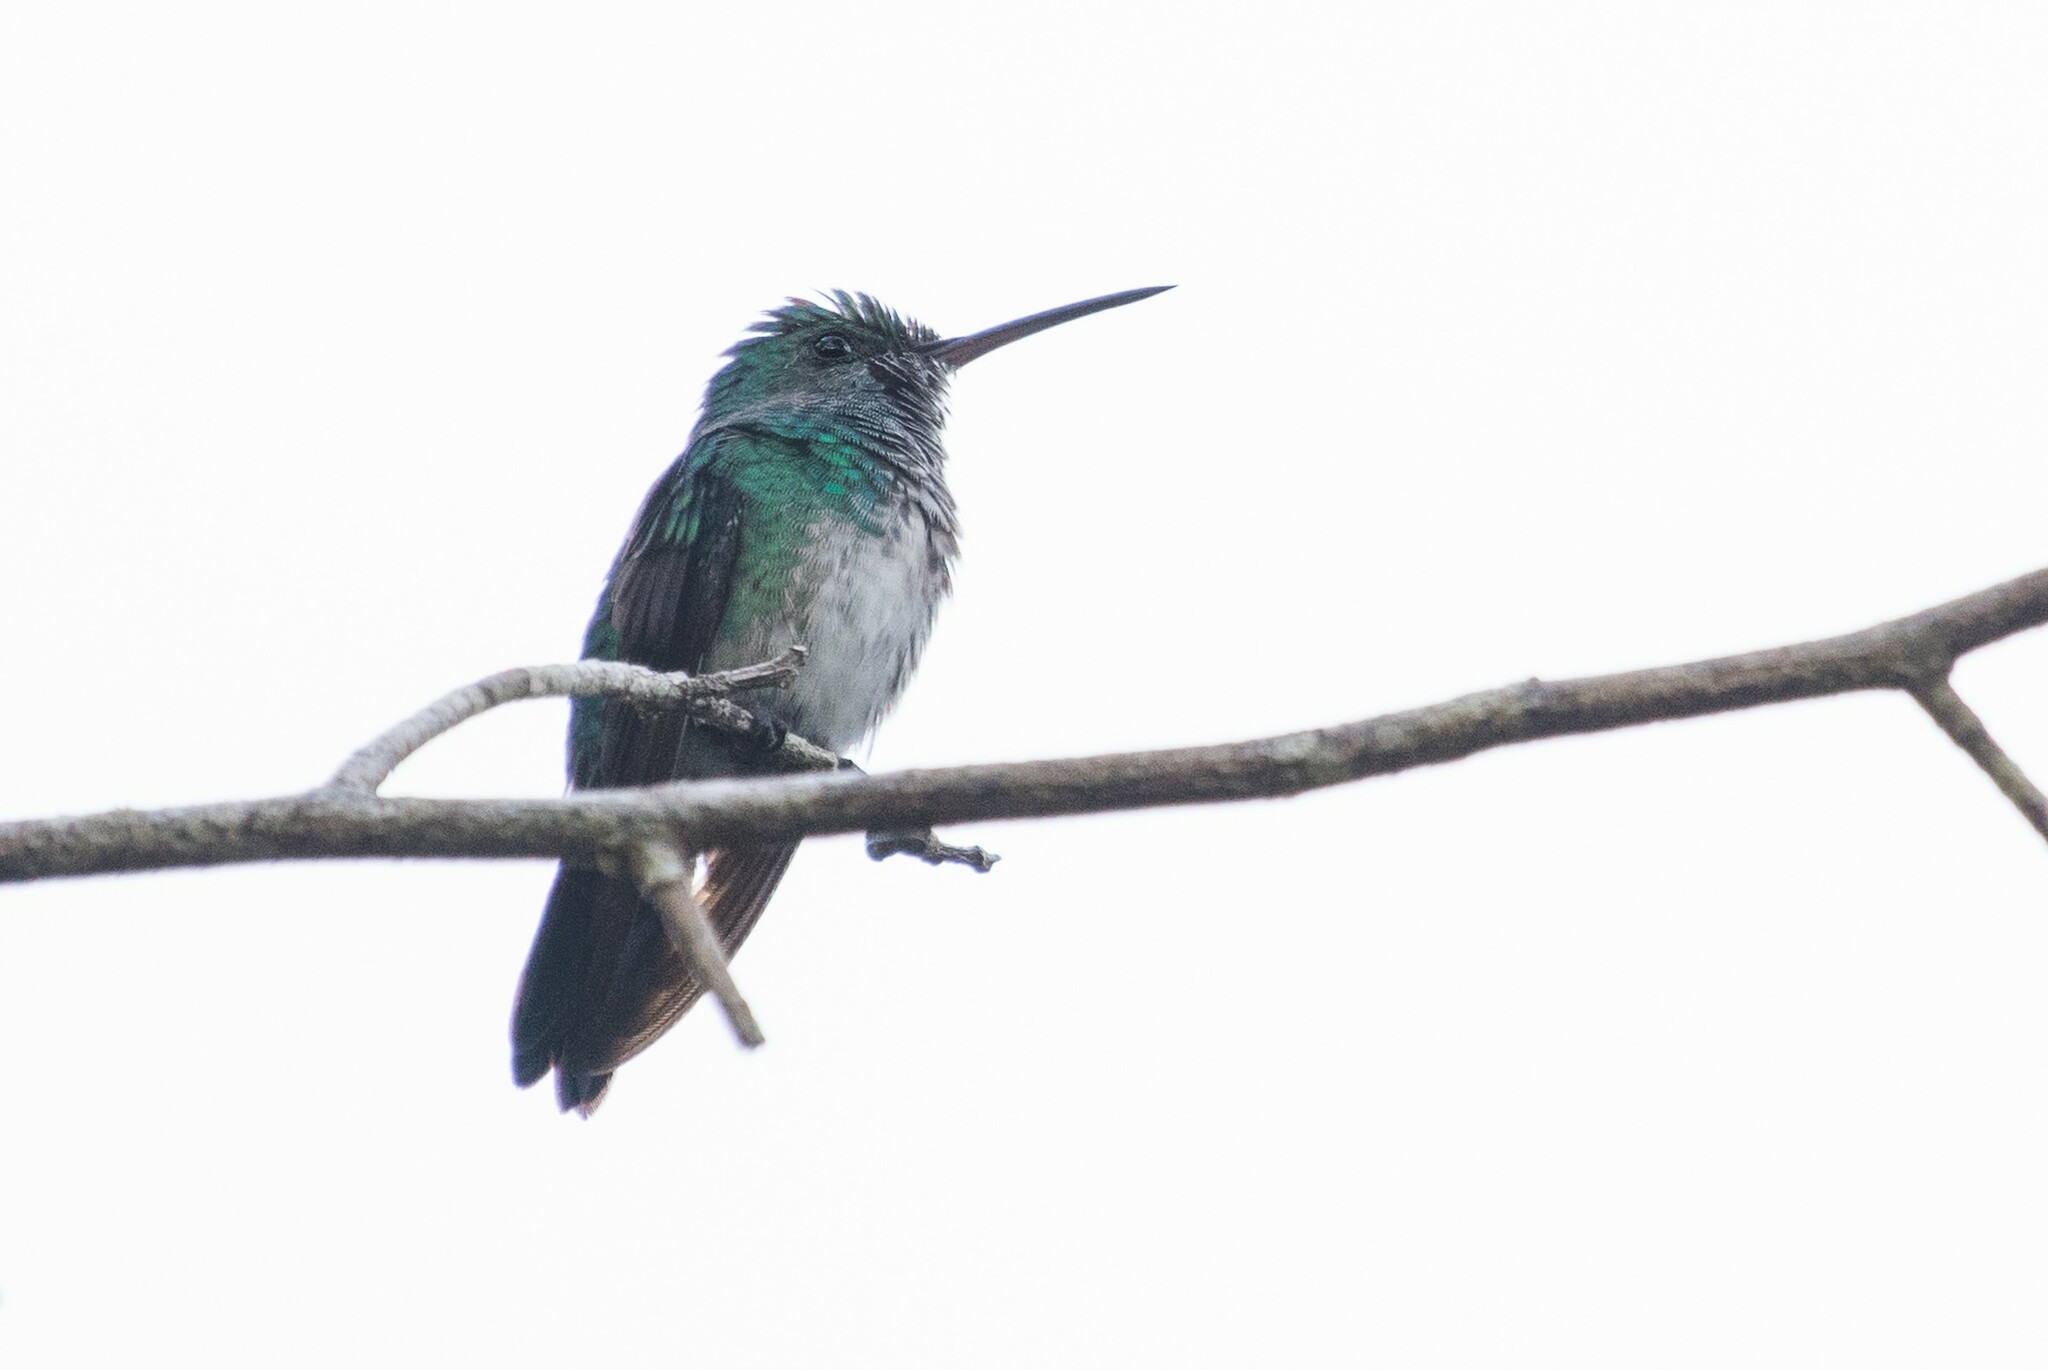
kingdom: Animalia
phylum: Chordata
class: Aves
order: Apodiformes
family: Trochilidae
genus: Florisuga
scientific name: Florisuga mellivora
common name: White-necked jacobin
